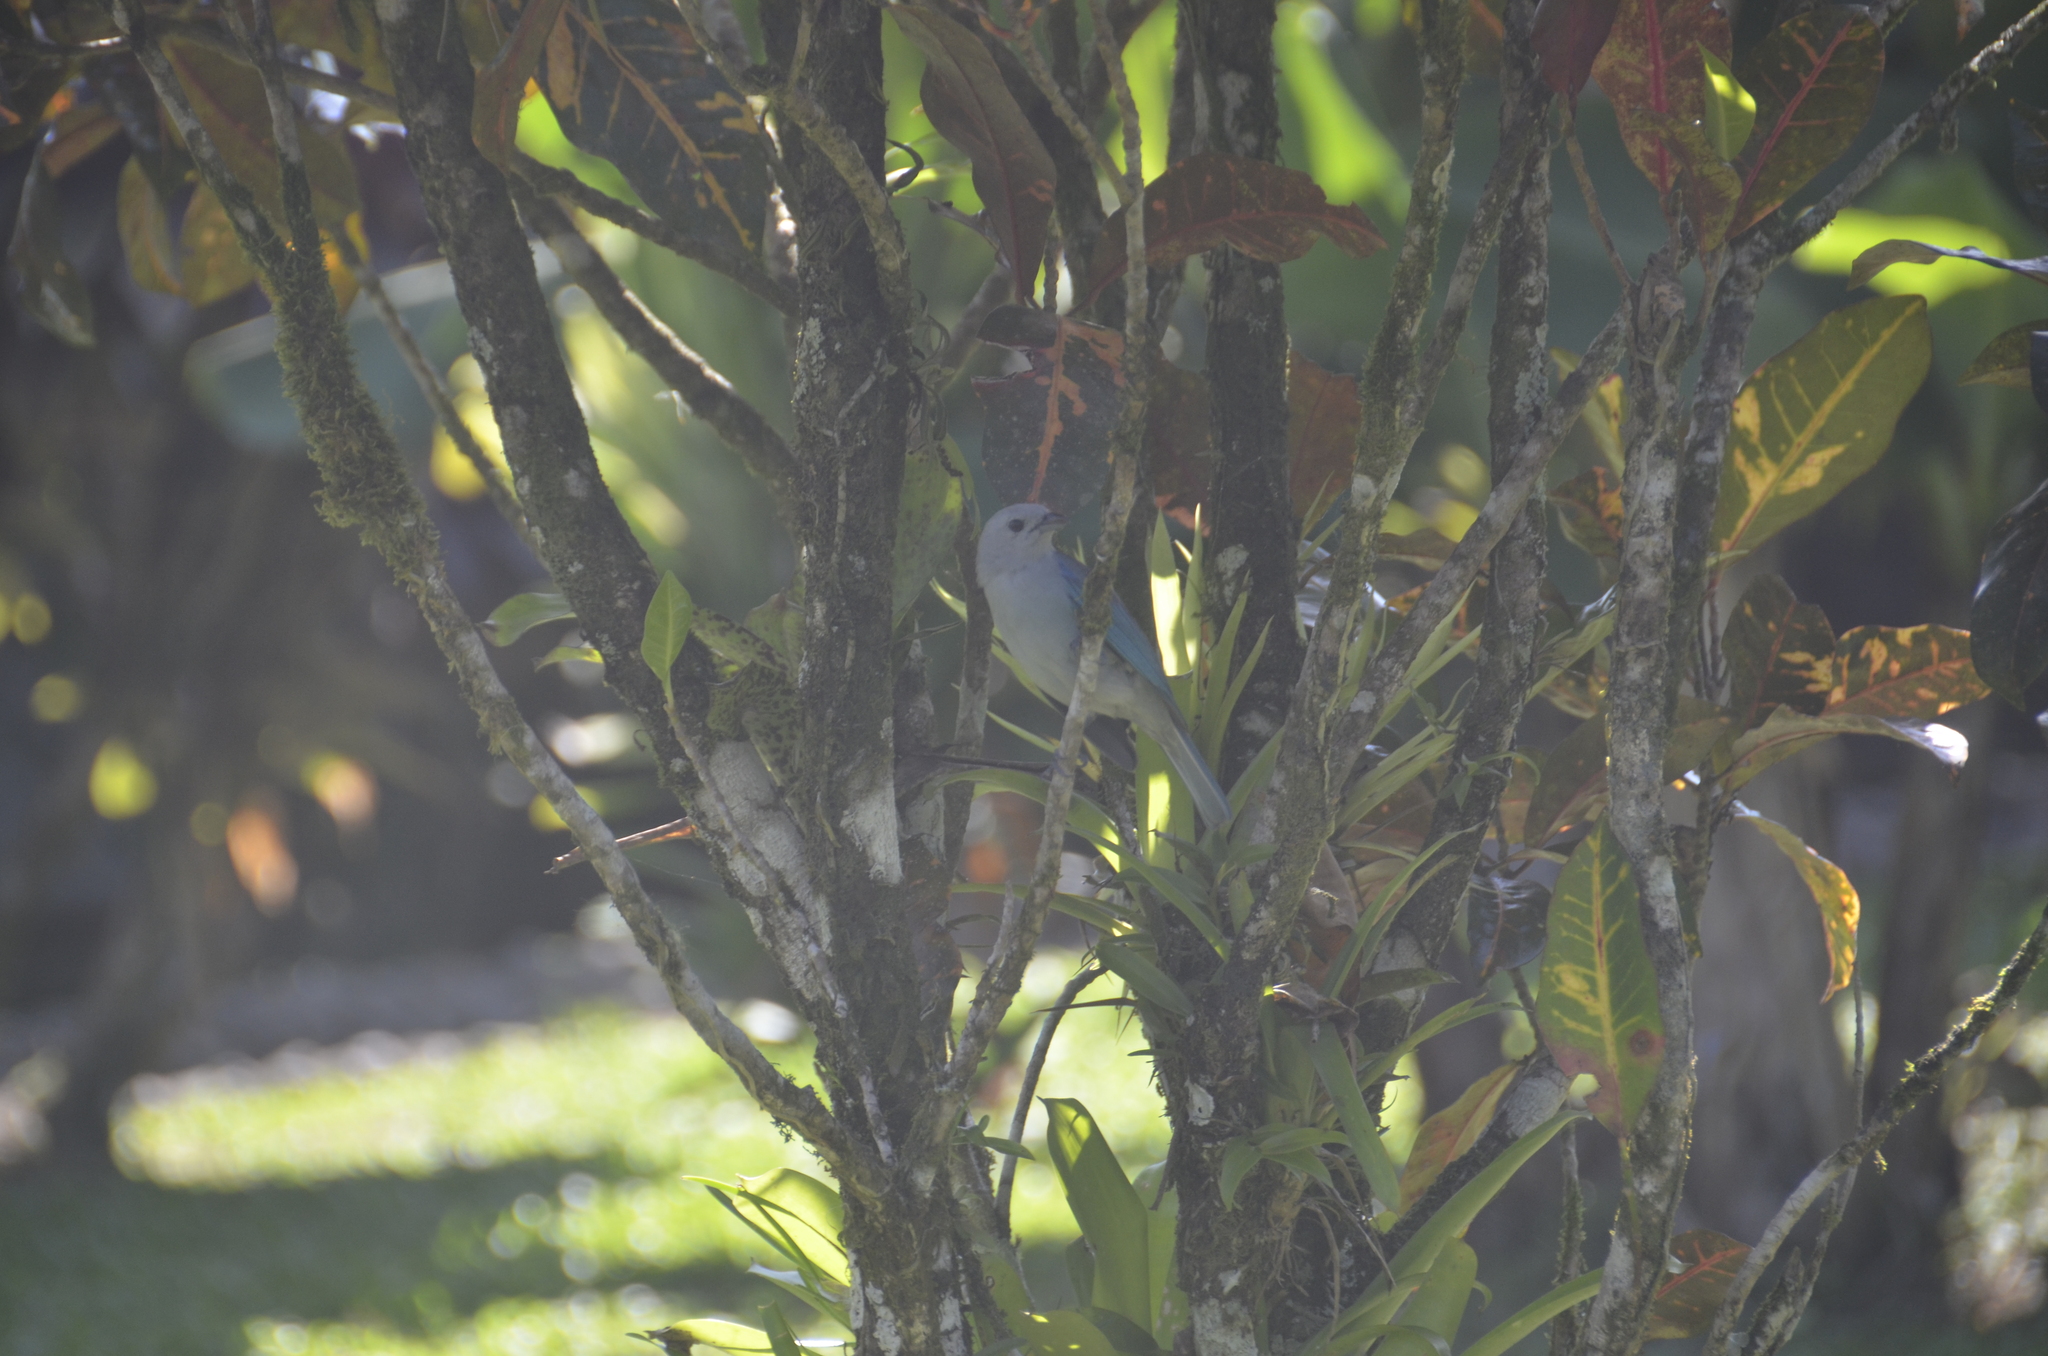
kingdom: Animalia
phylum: Chordata
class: Aves
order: Passeriformes
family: Thraupidae
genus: Thraupis
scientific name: Thraupis episcopus
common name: Blue-grey tanager
